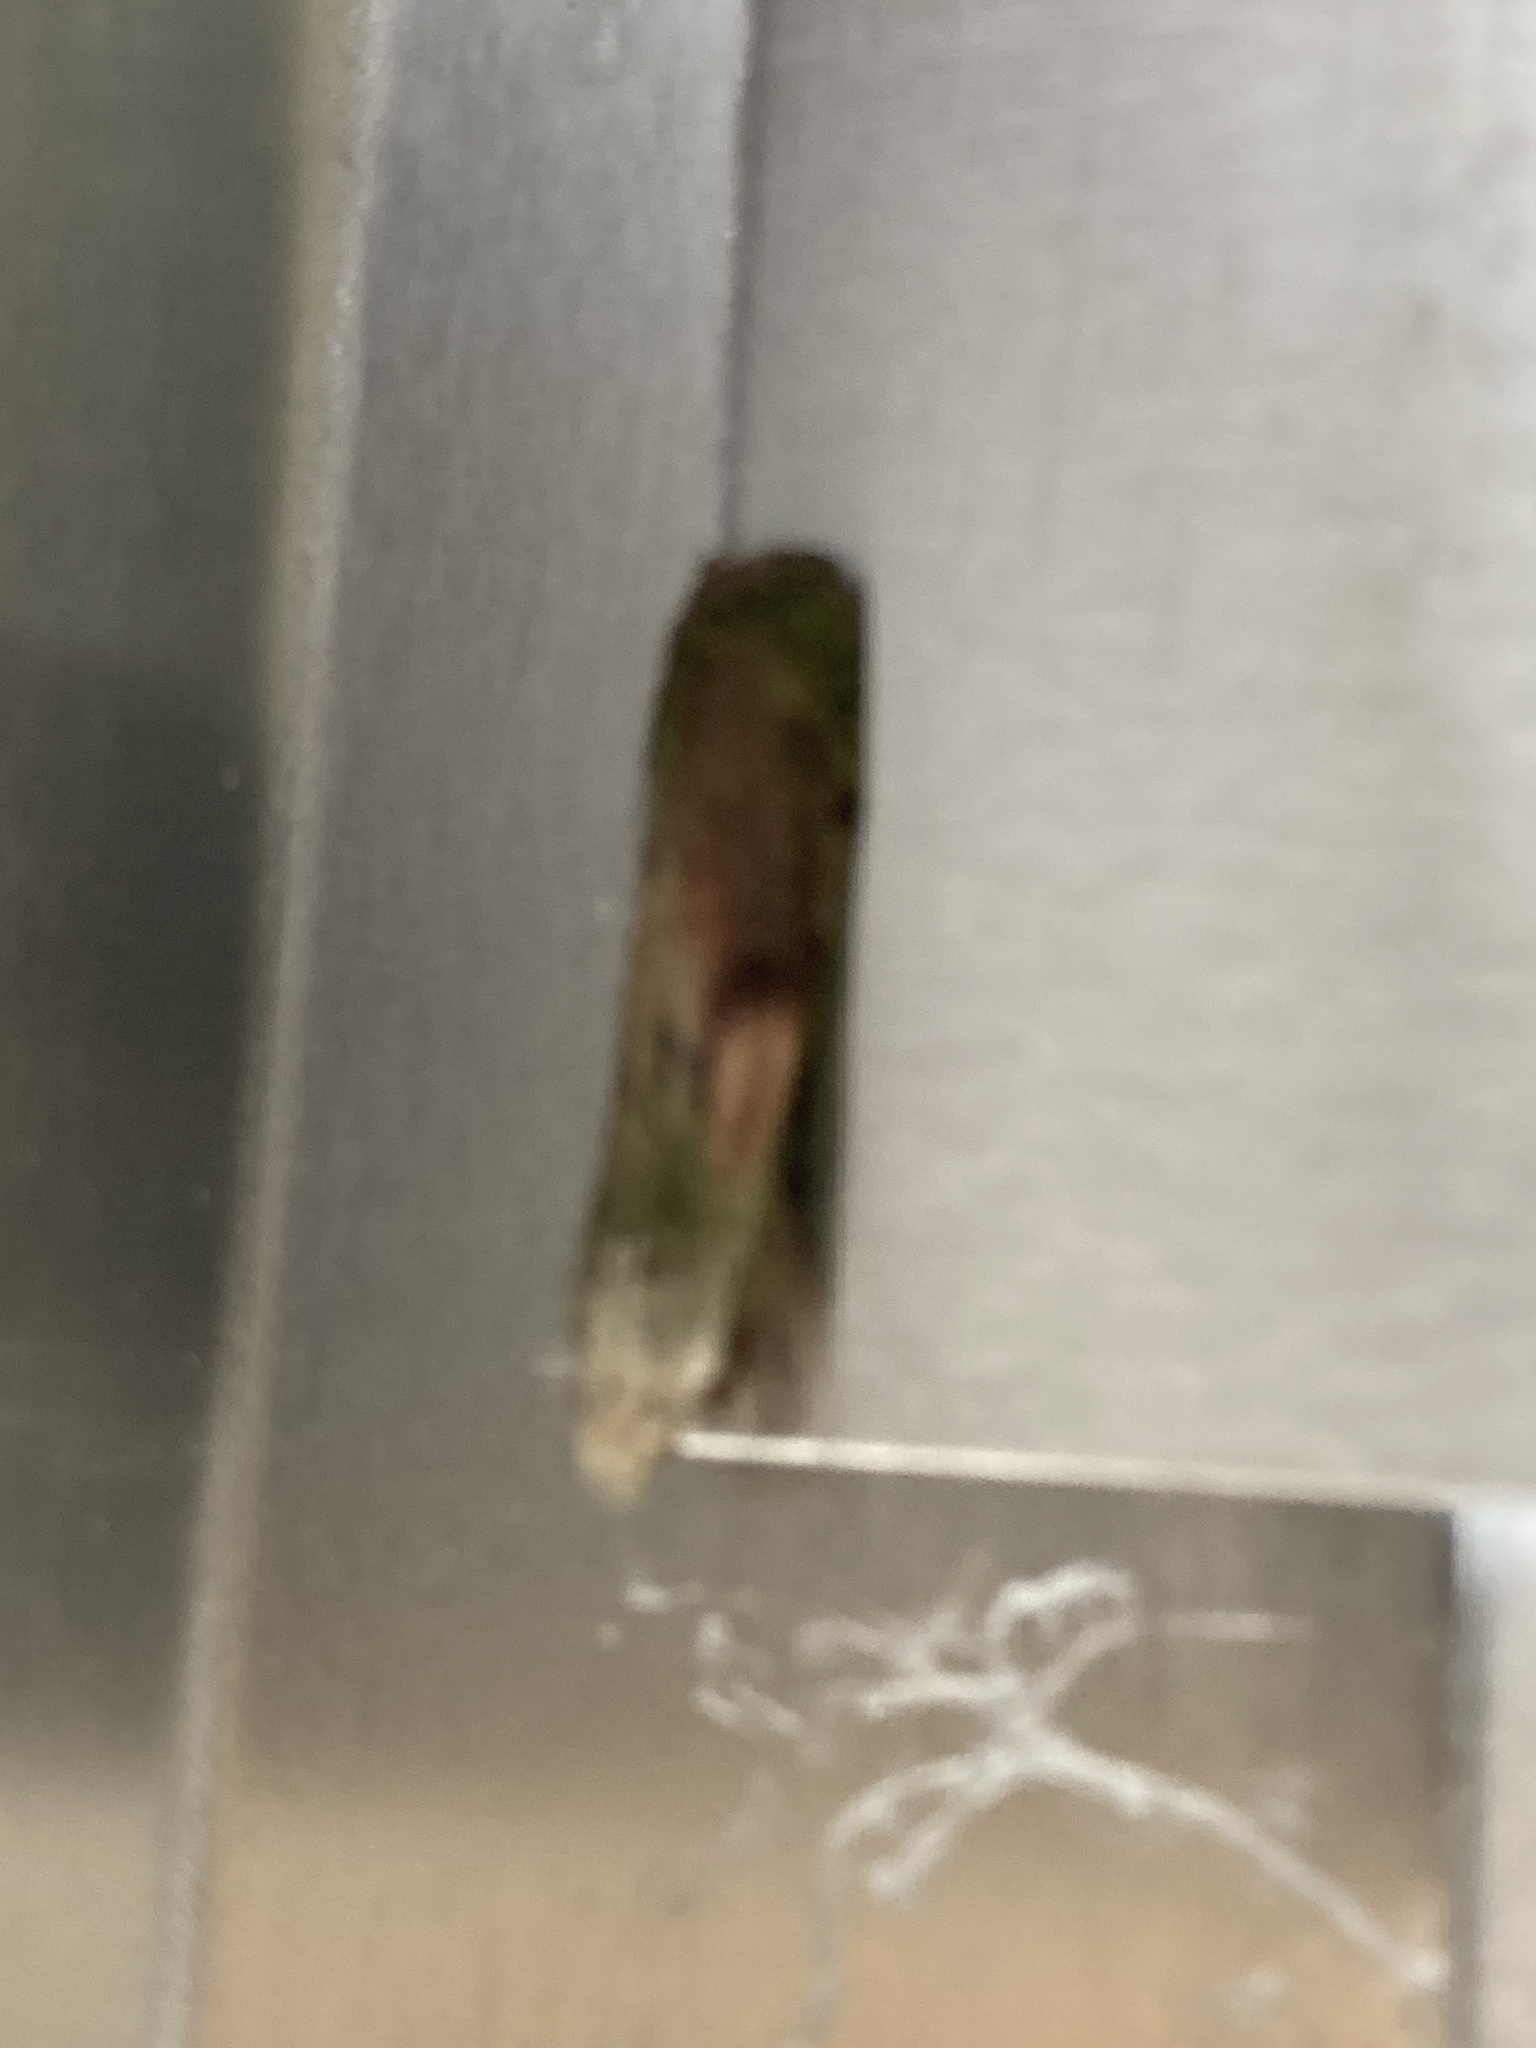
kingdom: Animalia
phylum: Arthropoda
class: Insecta
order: Lepidoptera
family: Pyralidae
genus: Aphomia
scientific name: Aphomia sociella
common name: Bee moth
